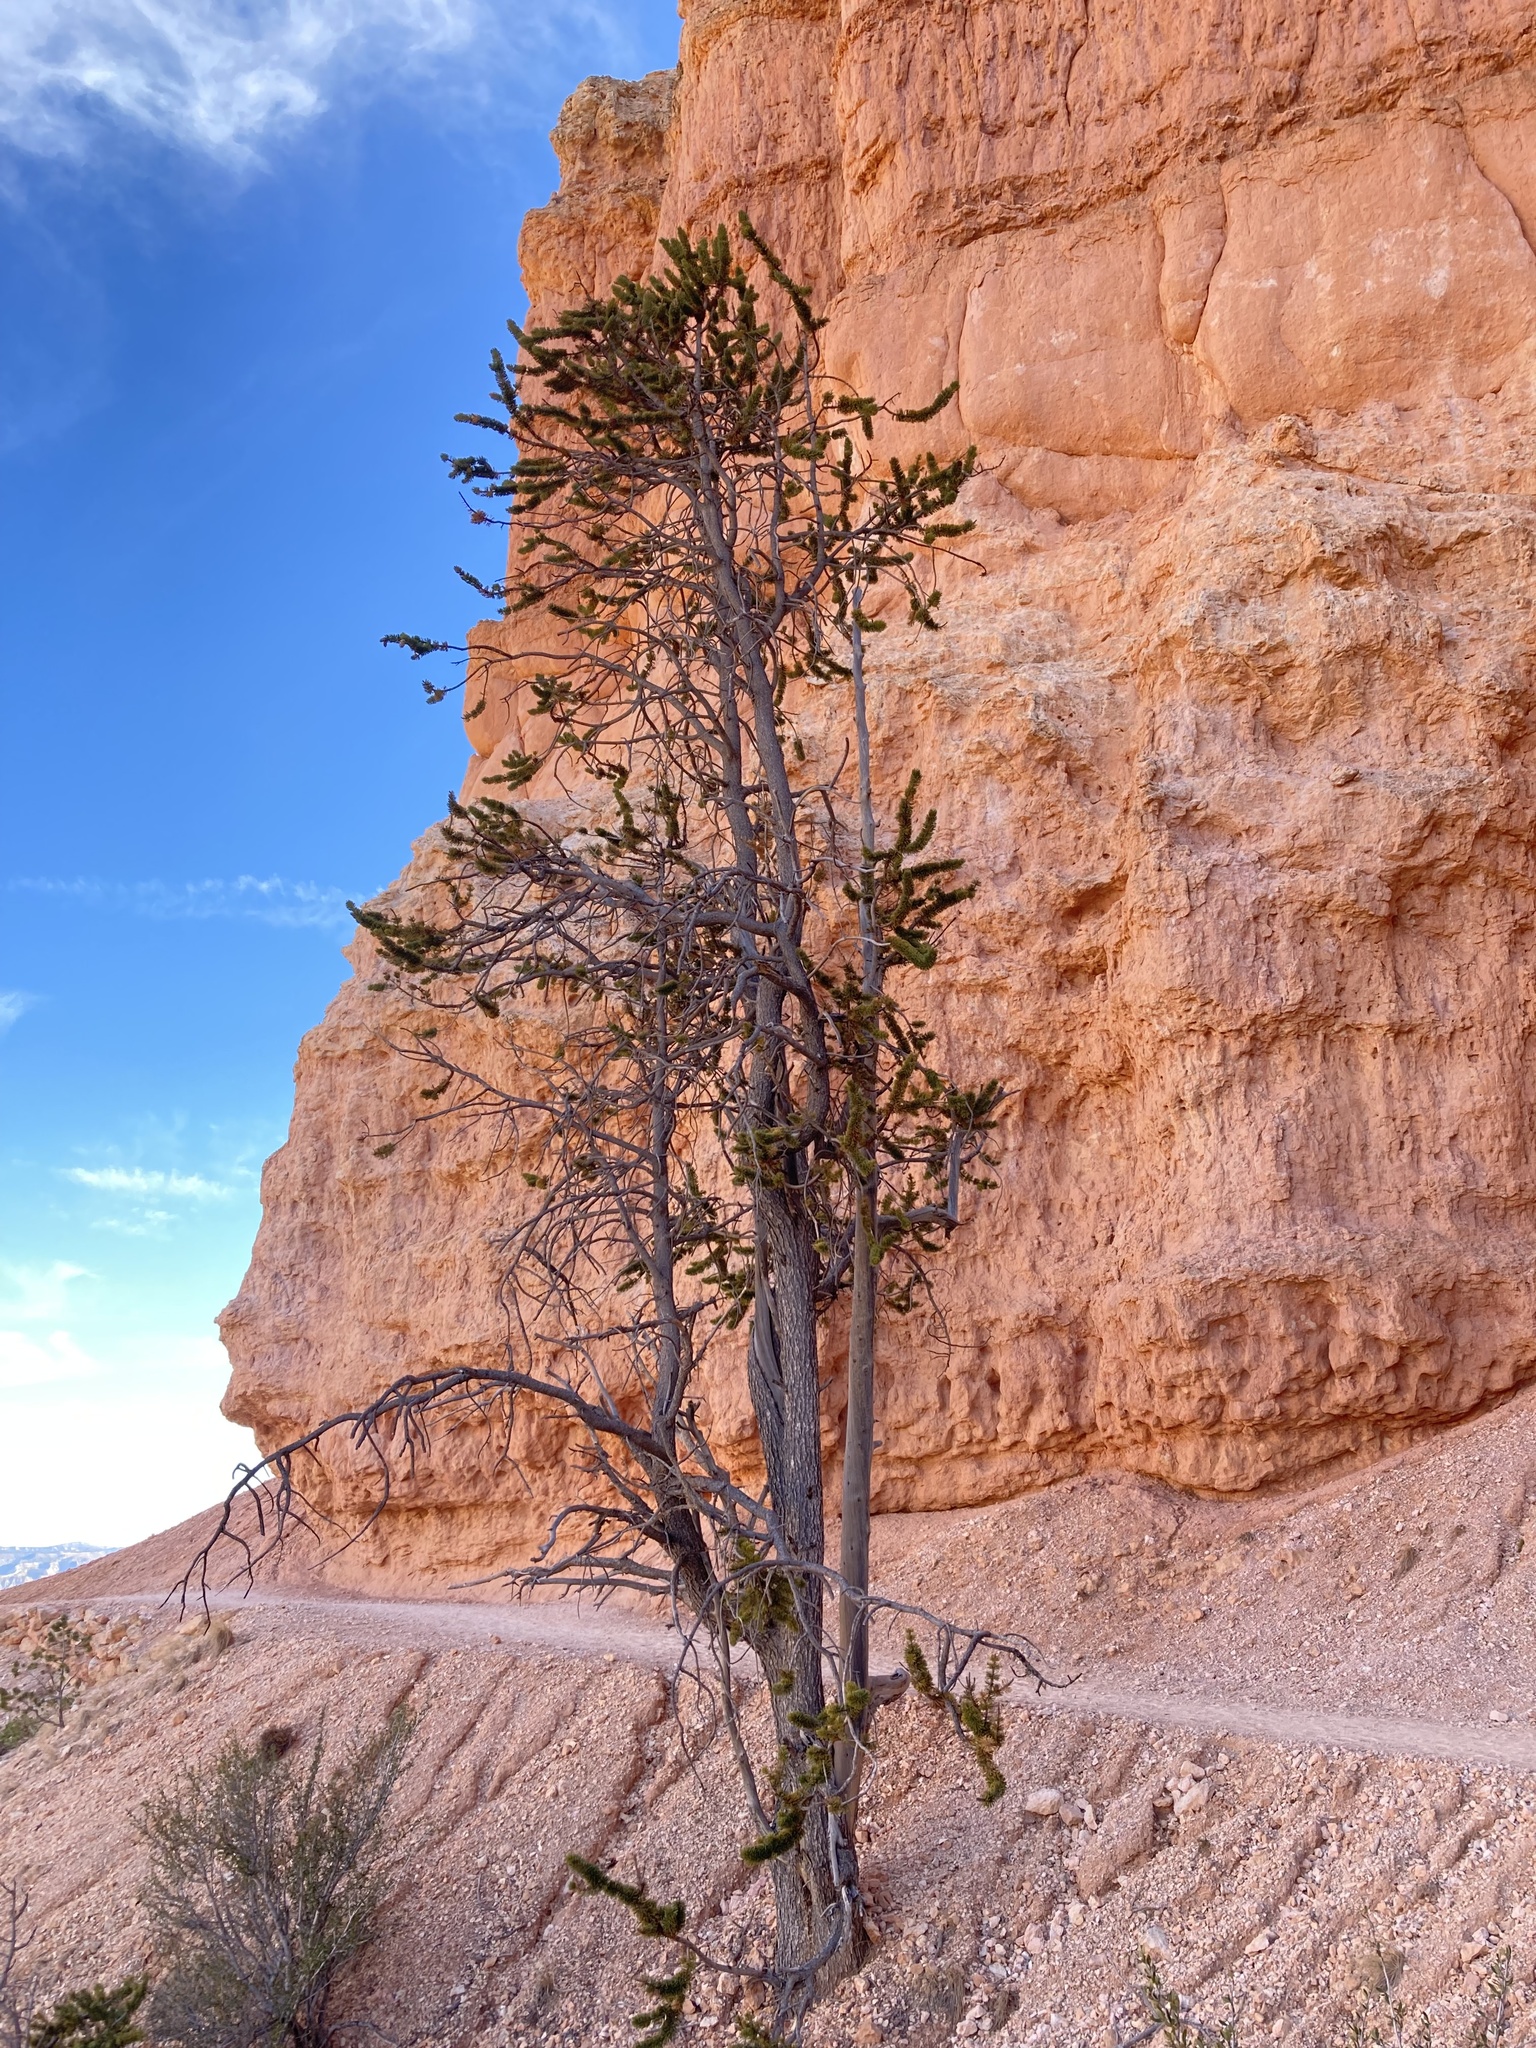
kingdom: Plantae
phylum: Tracheophyta
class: Pinopsida
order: Pinales
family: Pinaceae
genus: Pinus
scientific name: Pinus longaeva
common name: Intermountain bristlecone pine
